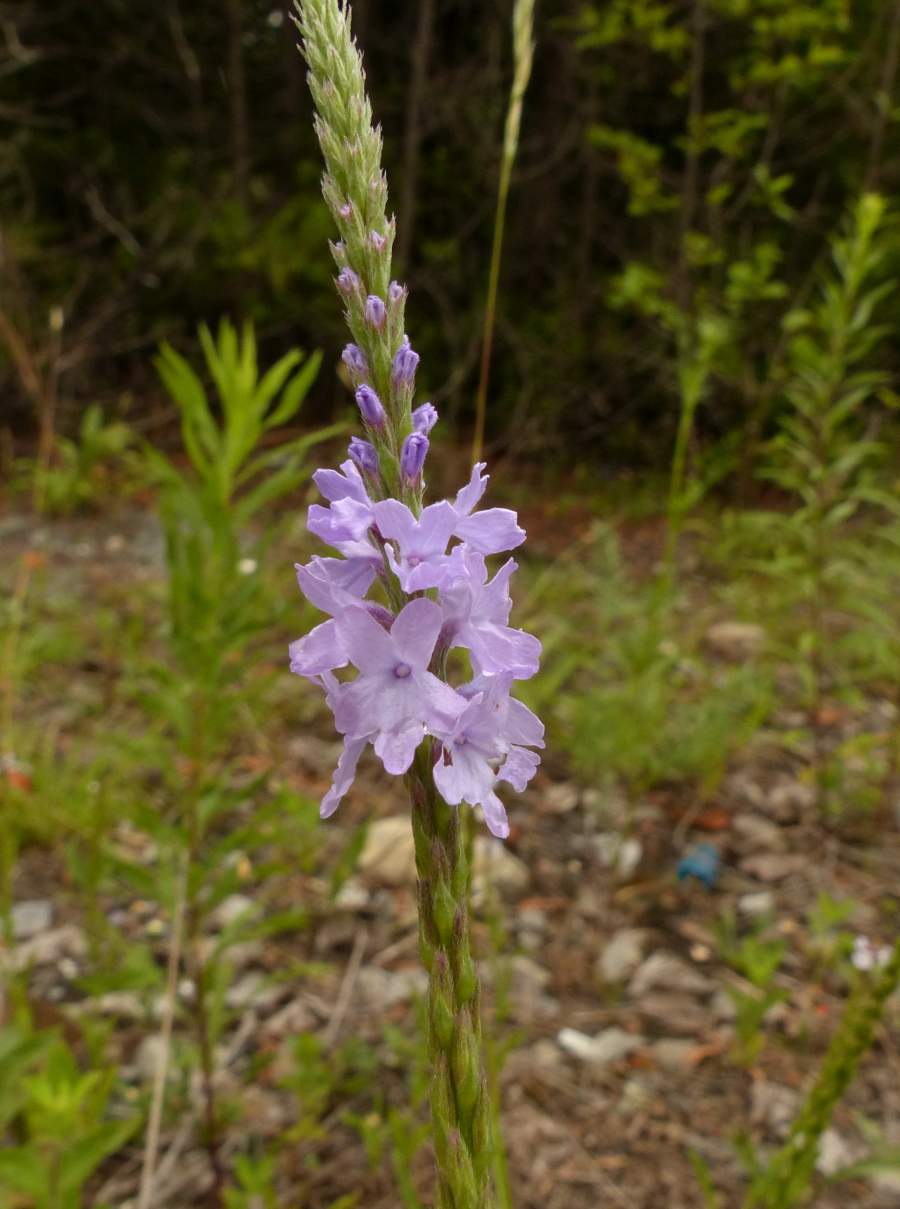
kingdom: Plantae
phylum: Tracheophyta
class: Magnoliopsida
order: Lamiales
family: Verbenaceae
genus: Verbena
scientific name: Verbena stricta
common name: Hoary vervain
